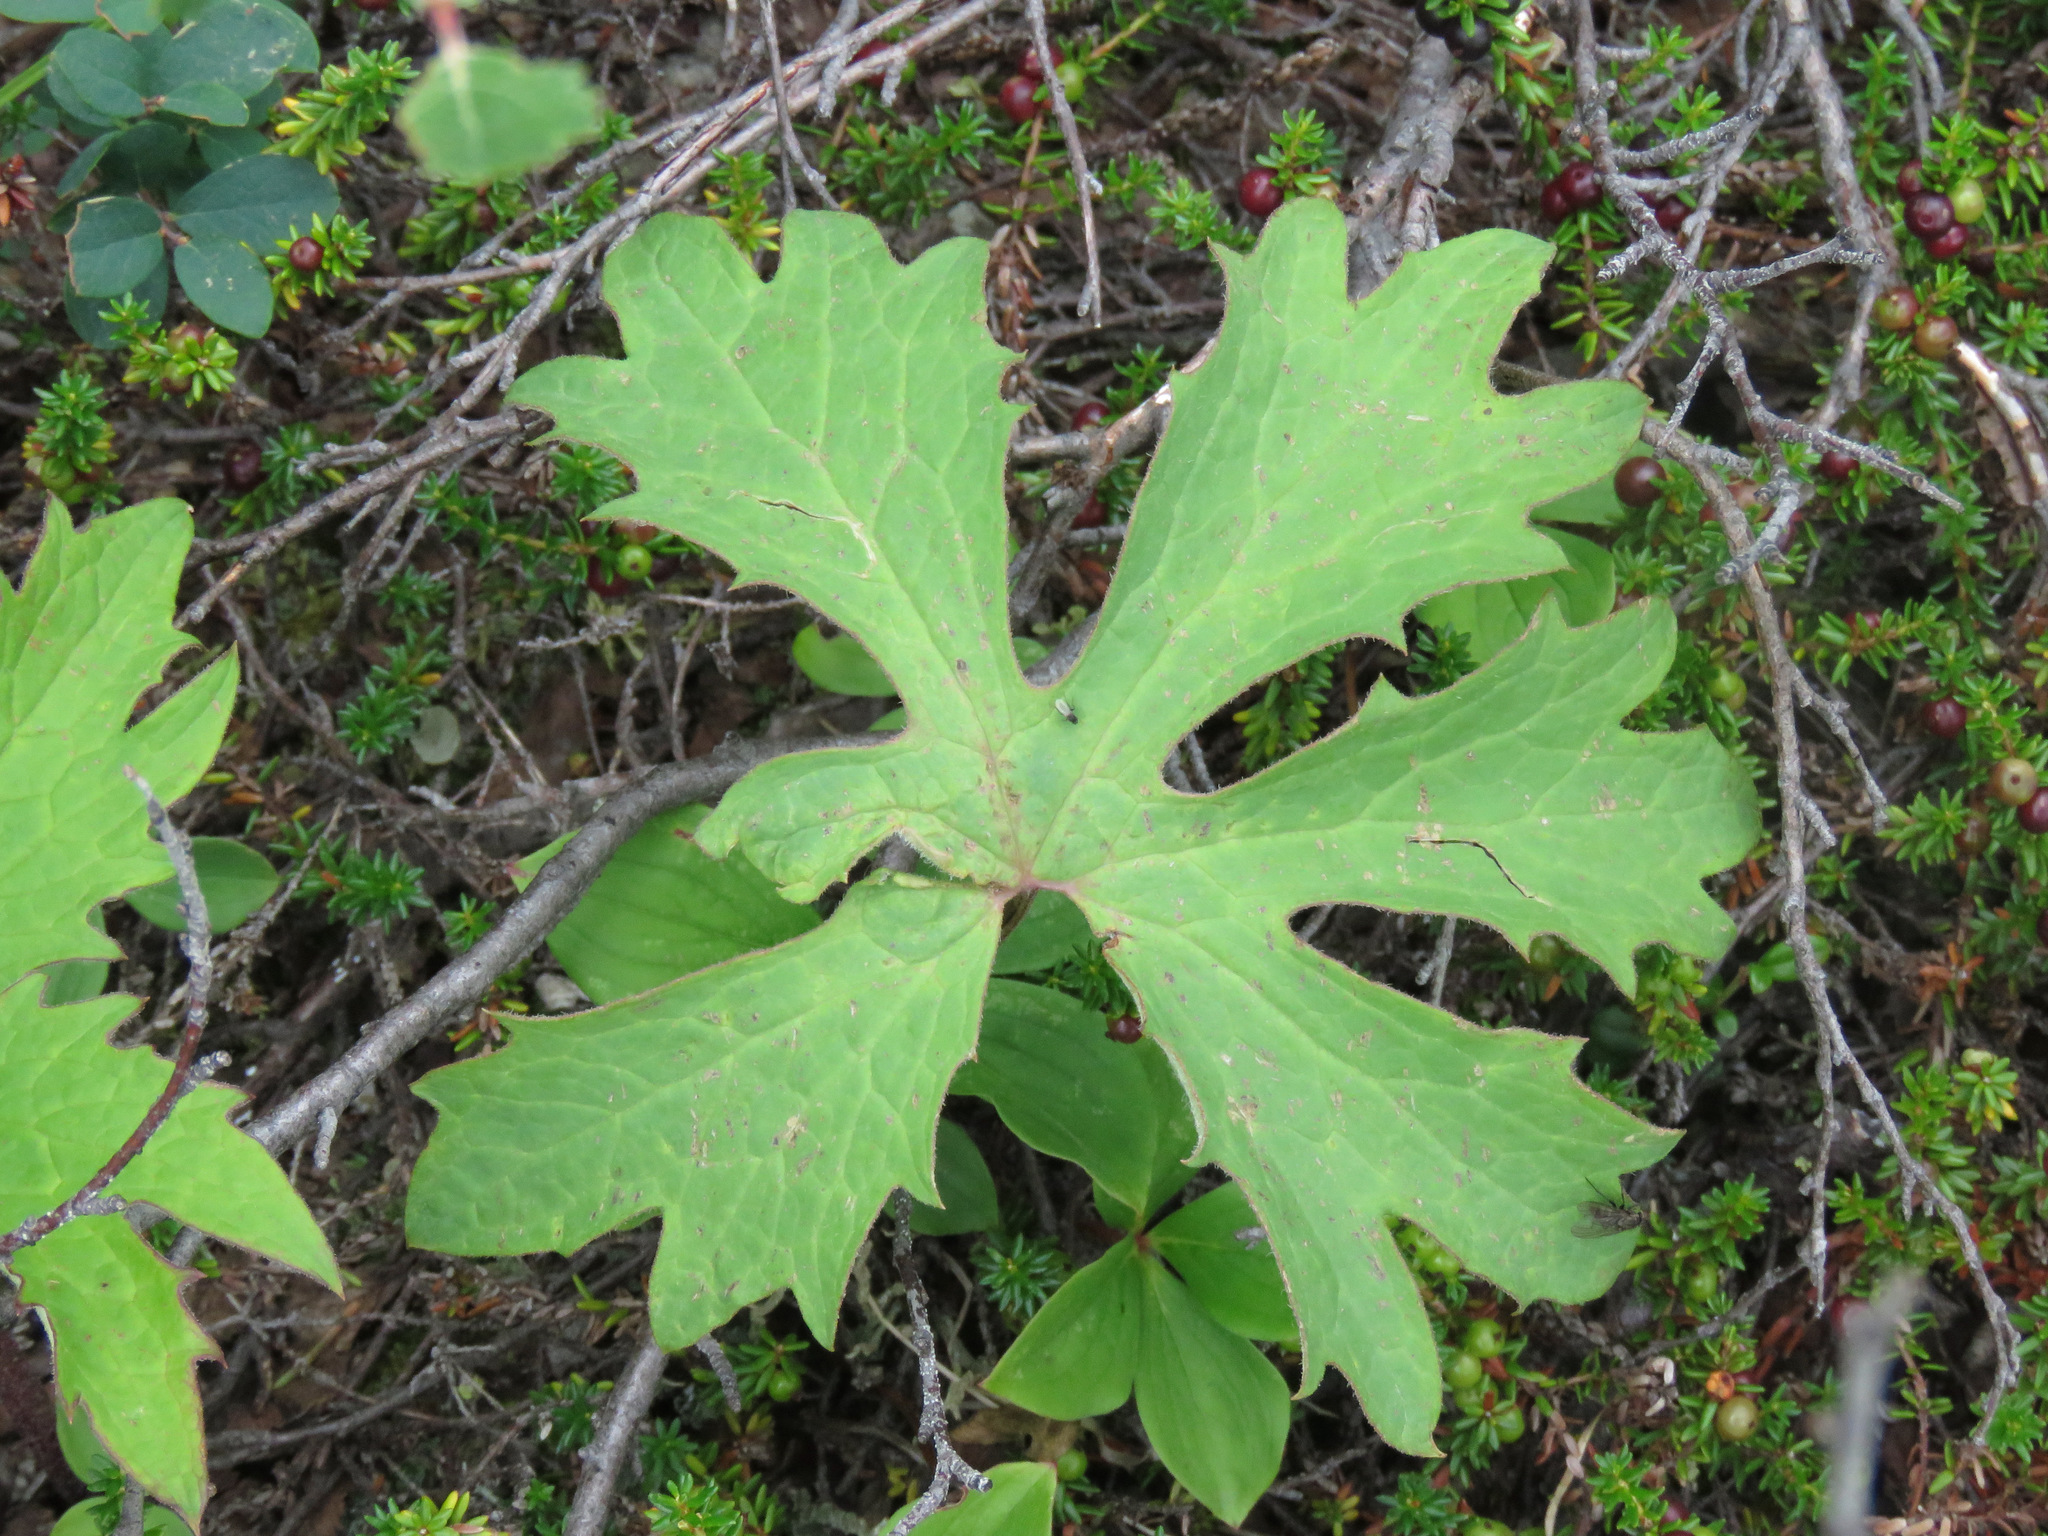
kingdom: Plantae
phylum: Tracheophyta
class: Magnoliopsida
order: Asterales
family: Asteraceae
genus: Petasites
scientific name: Petasites frigidus
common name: Arctic butterbur
